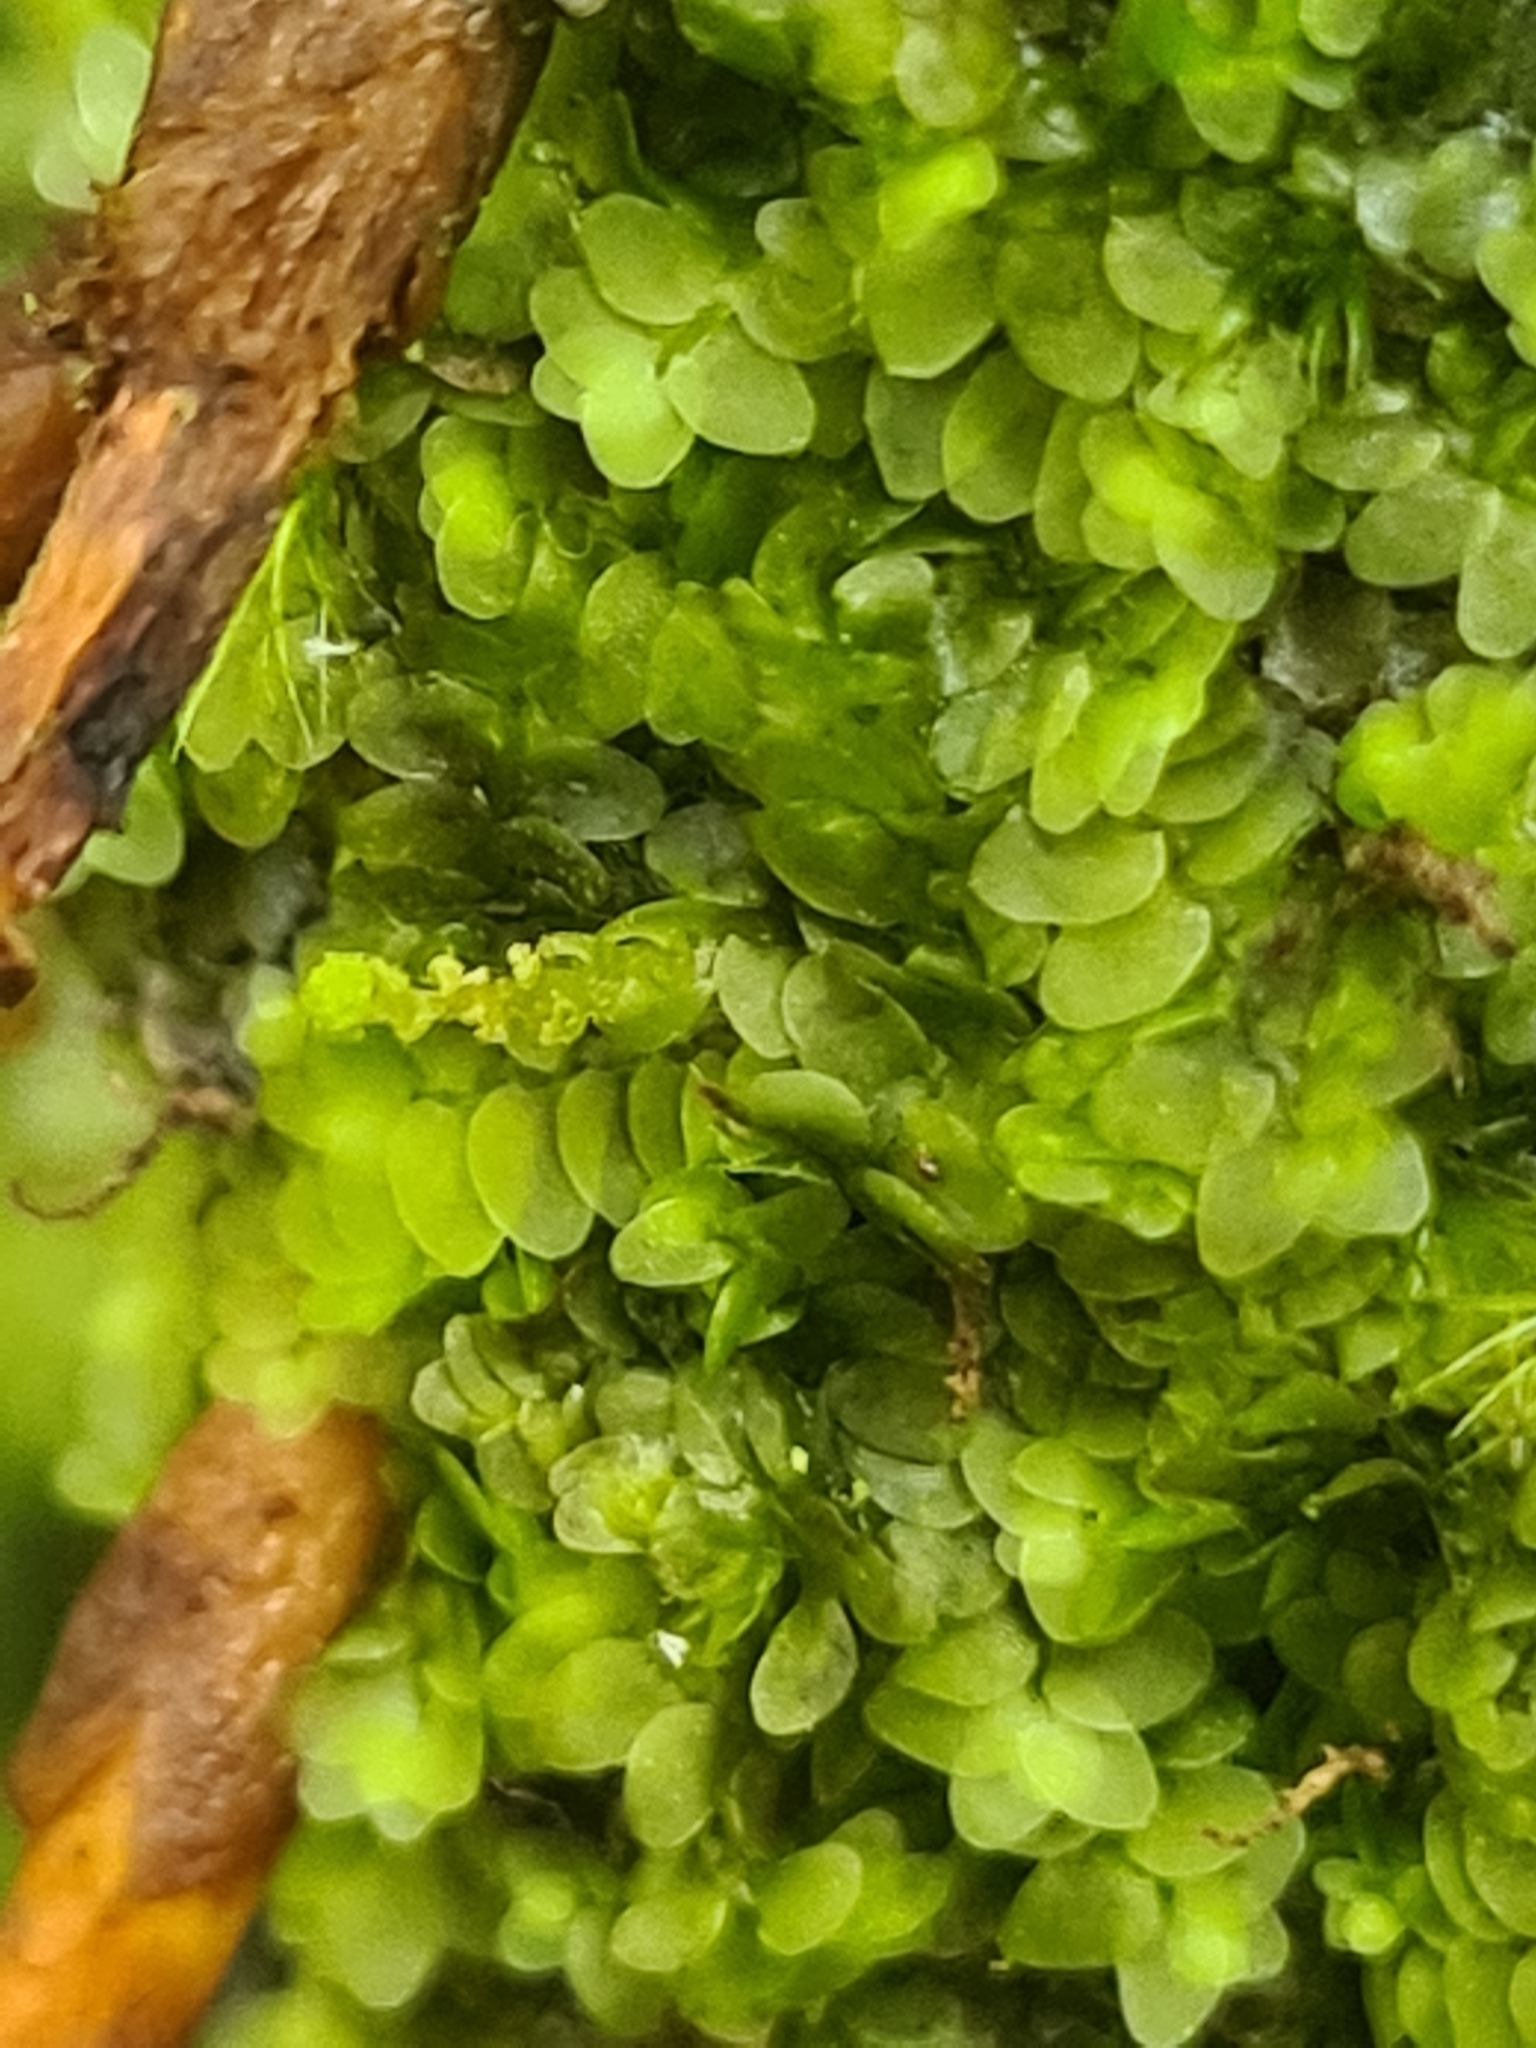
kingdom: Plantae
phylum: Marchantiophyta
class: Jungermanniopsida
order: Jungermanniales
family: Calypogeiaceae
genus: Calypogeia
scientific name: Calypogeia integristipula
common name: Meylan s pouchwort
